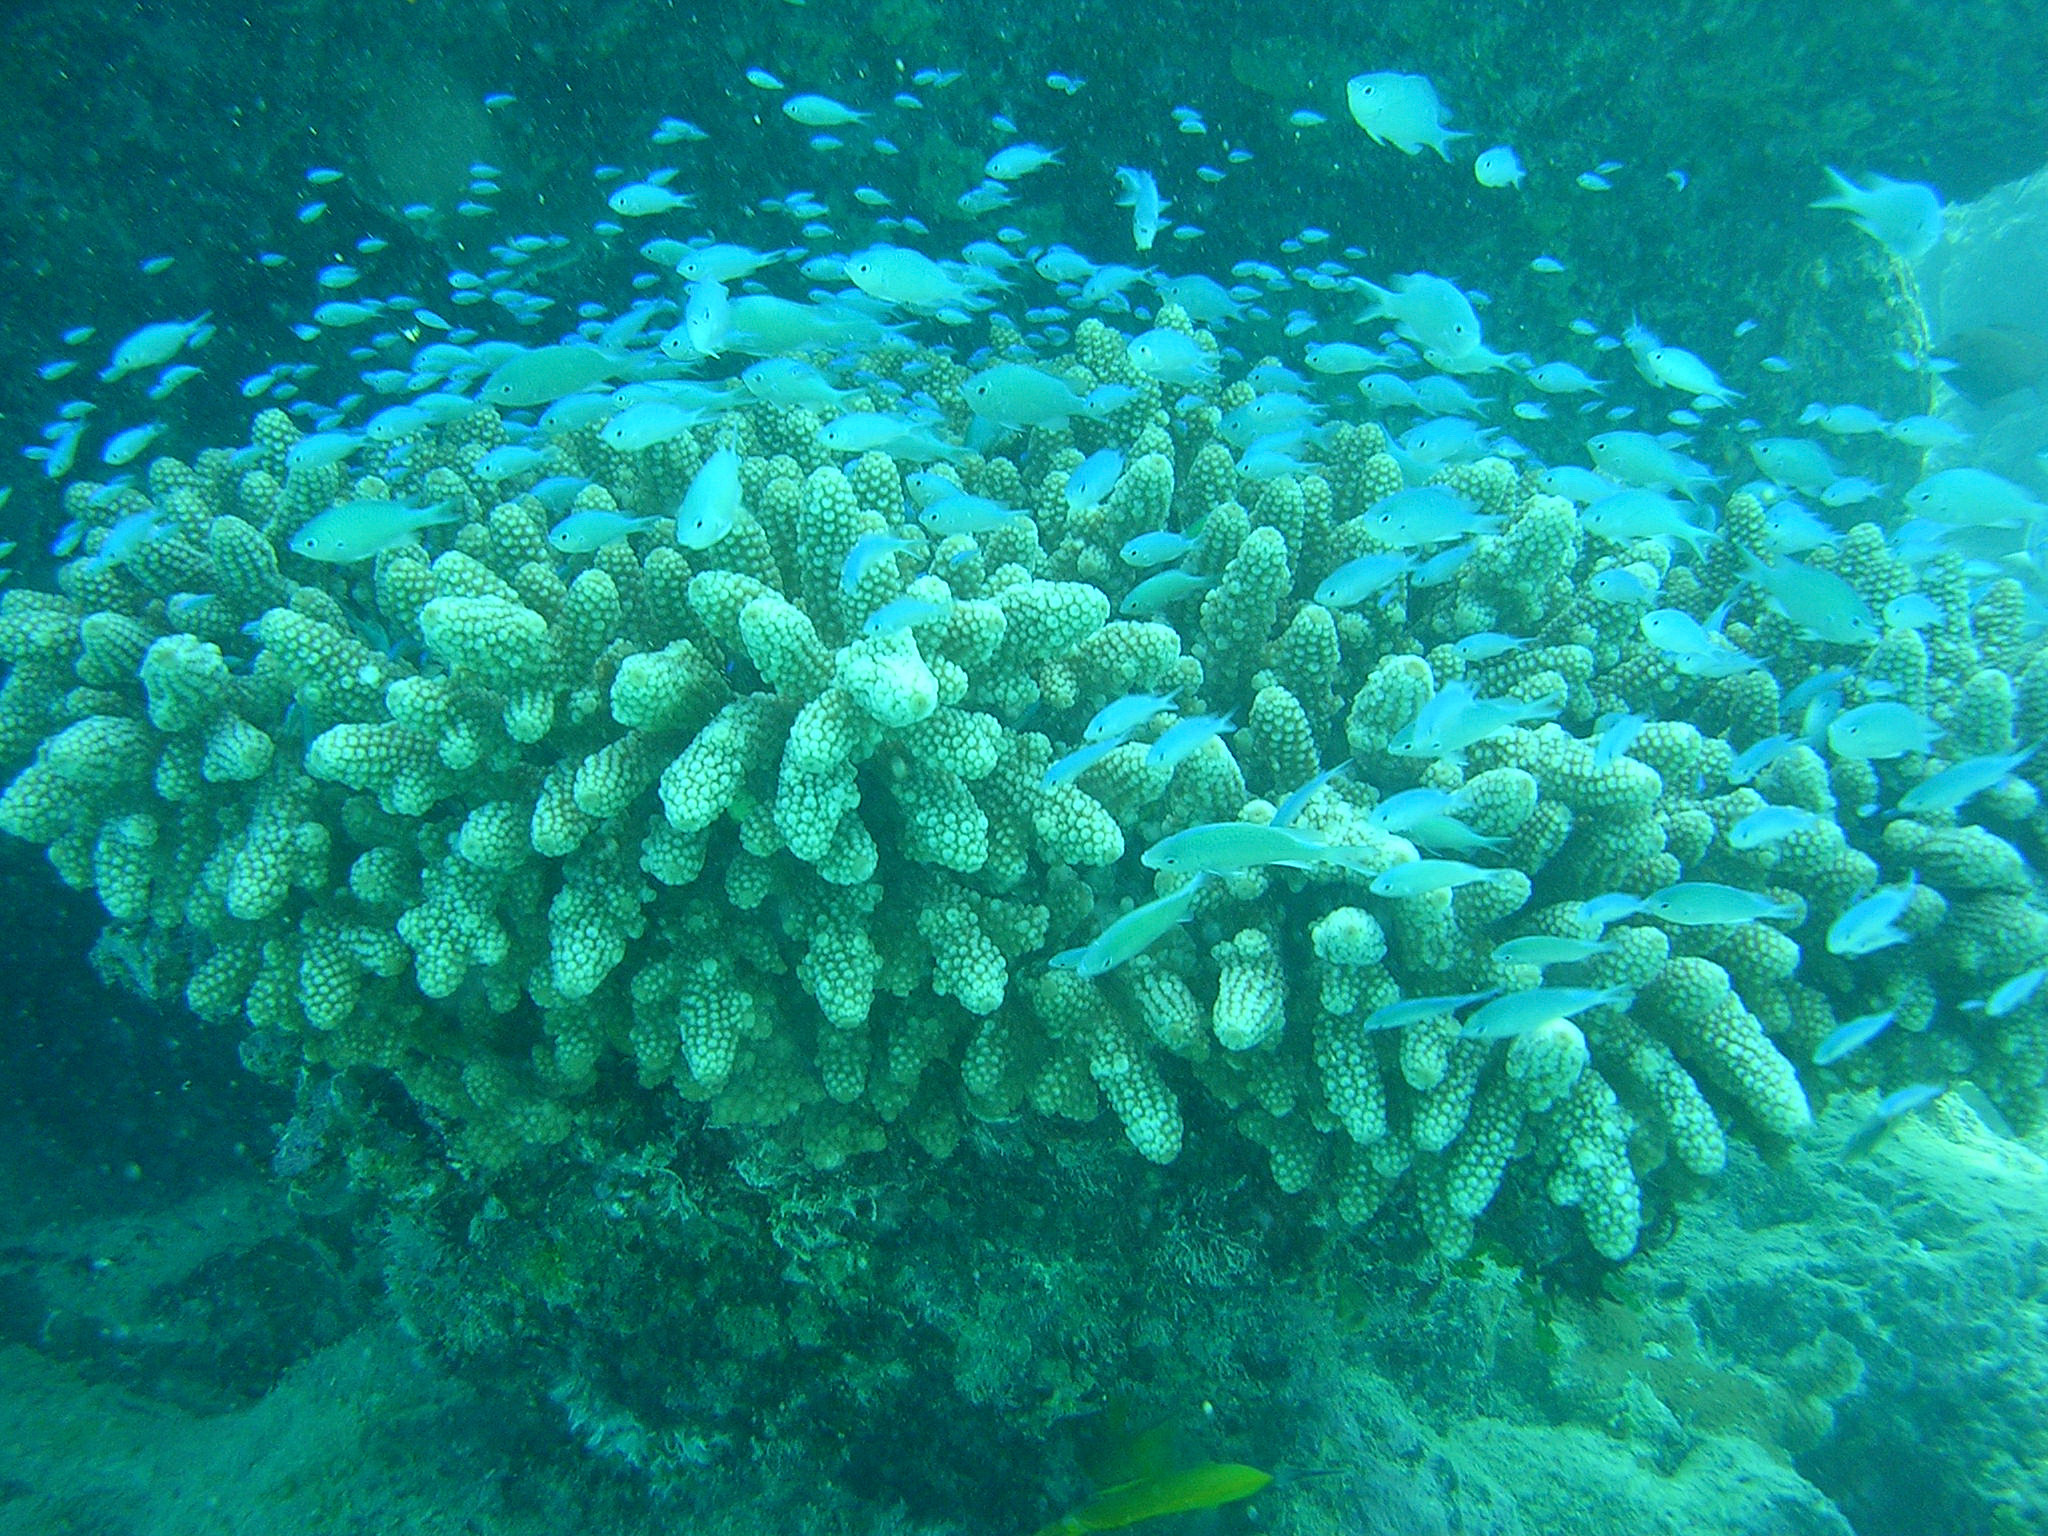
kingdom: Animalia
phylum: Chordata
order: Perciformes
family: Pomacentridae
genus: Chromis
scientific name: Chromis atripectoralis
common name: Black-axil chromis
